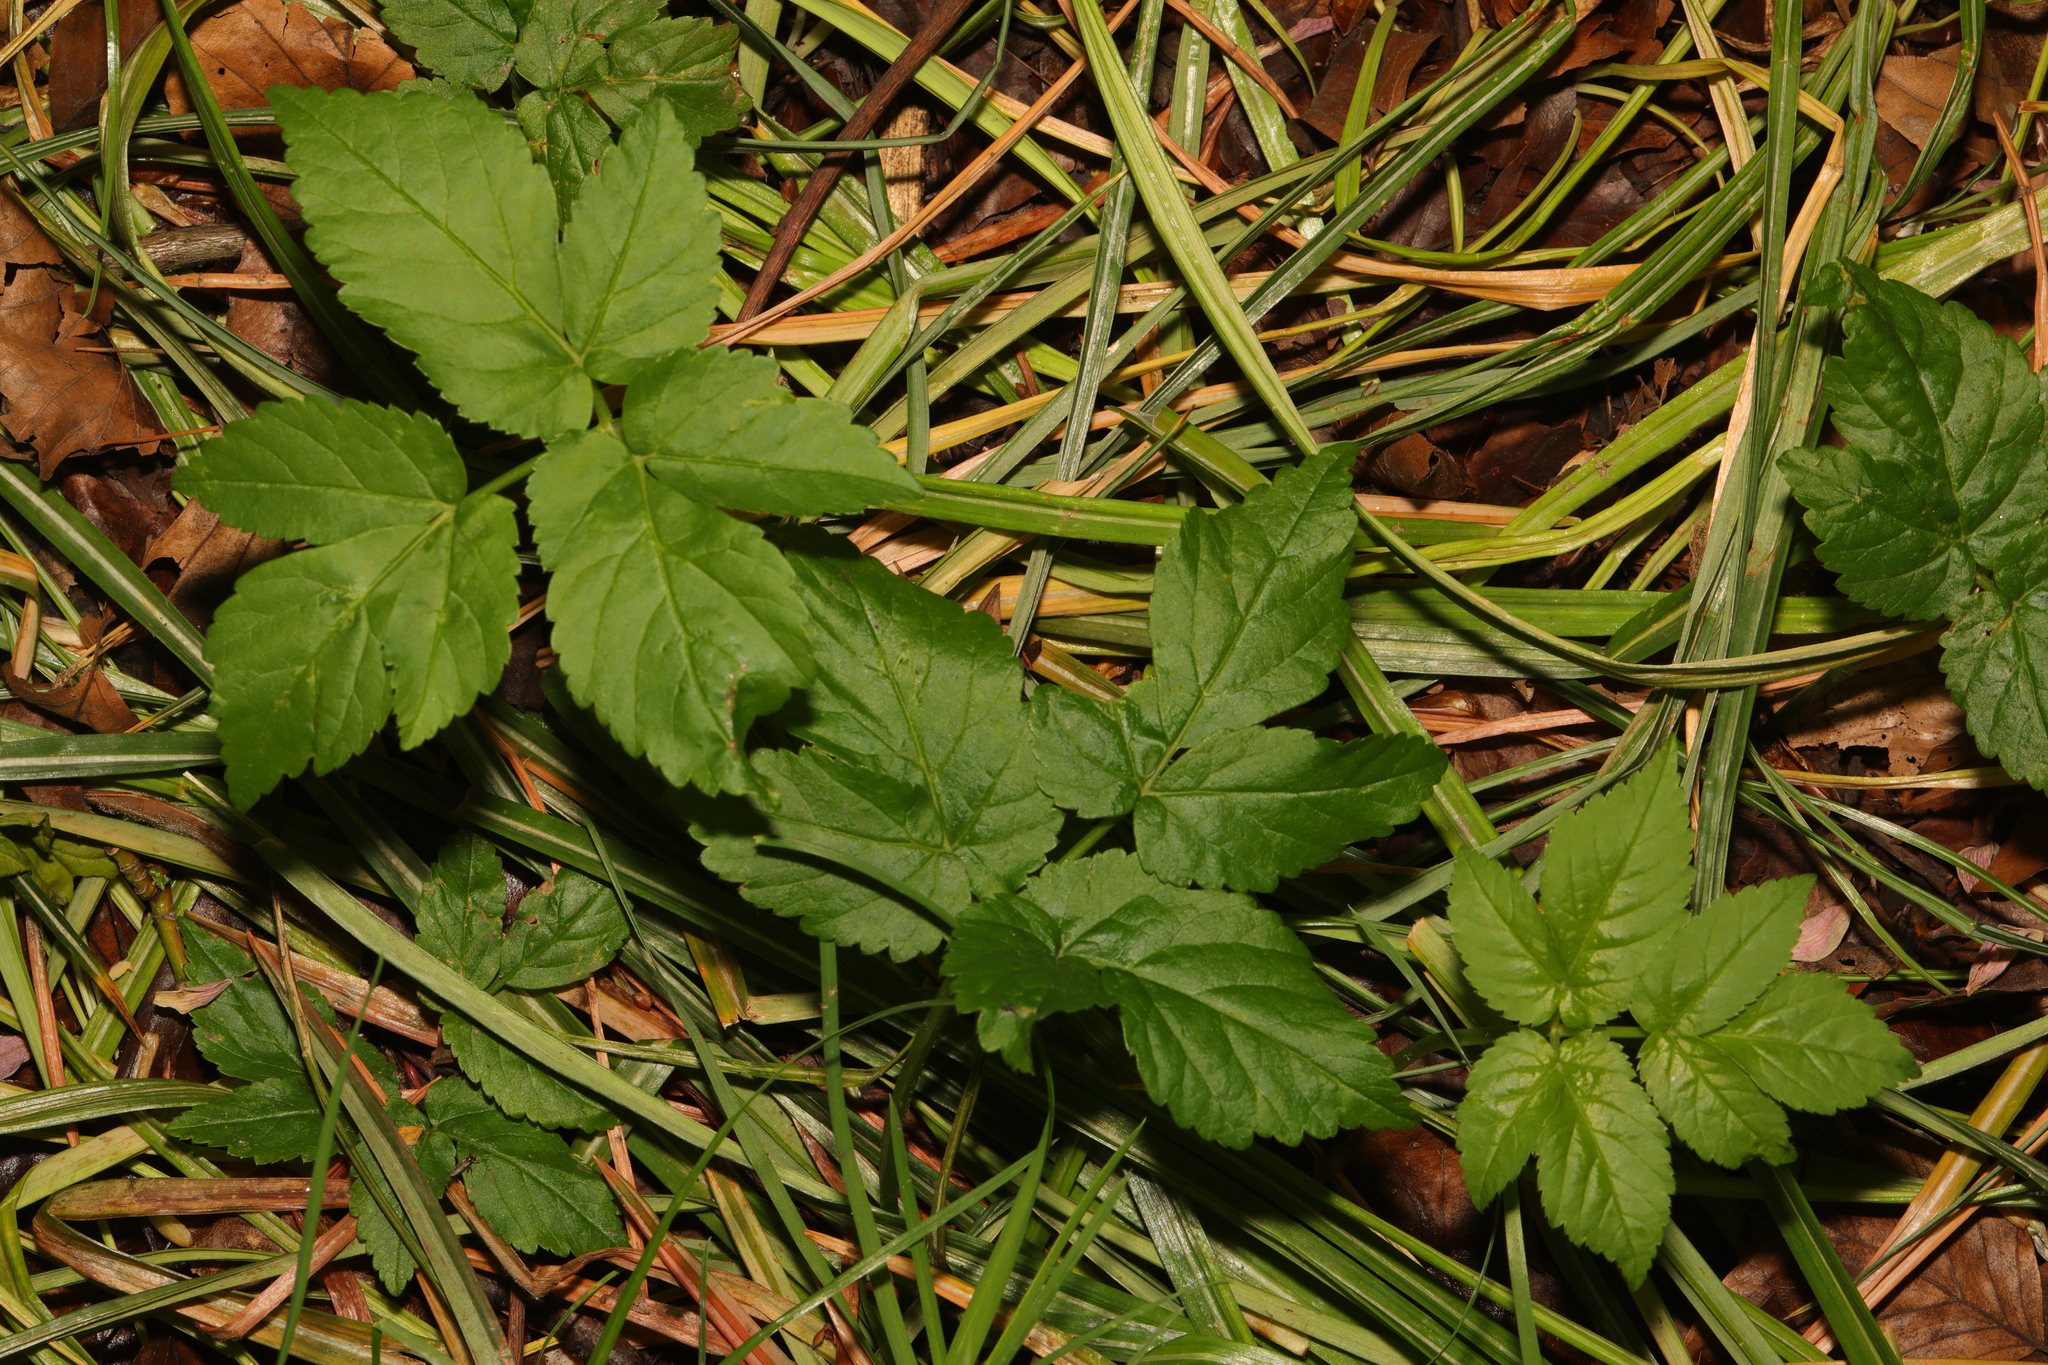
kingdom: Plantae
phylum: Tracheophyta
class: Magnoliopsida
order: Apiales
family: Apiaceae
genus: Aegopodium
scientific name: Aegopodium podagraria
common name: Ground-elder
